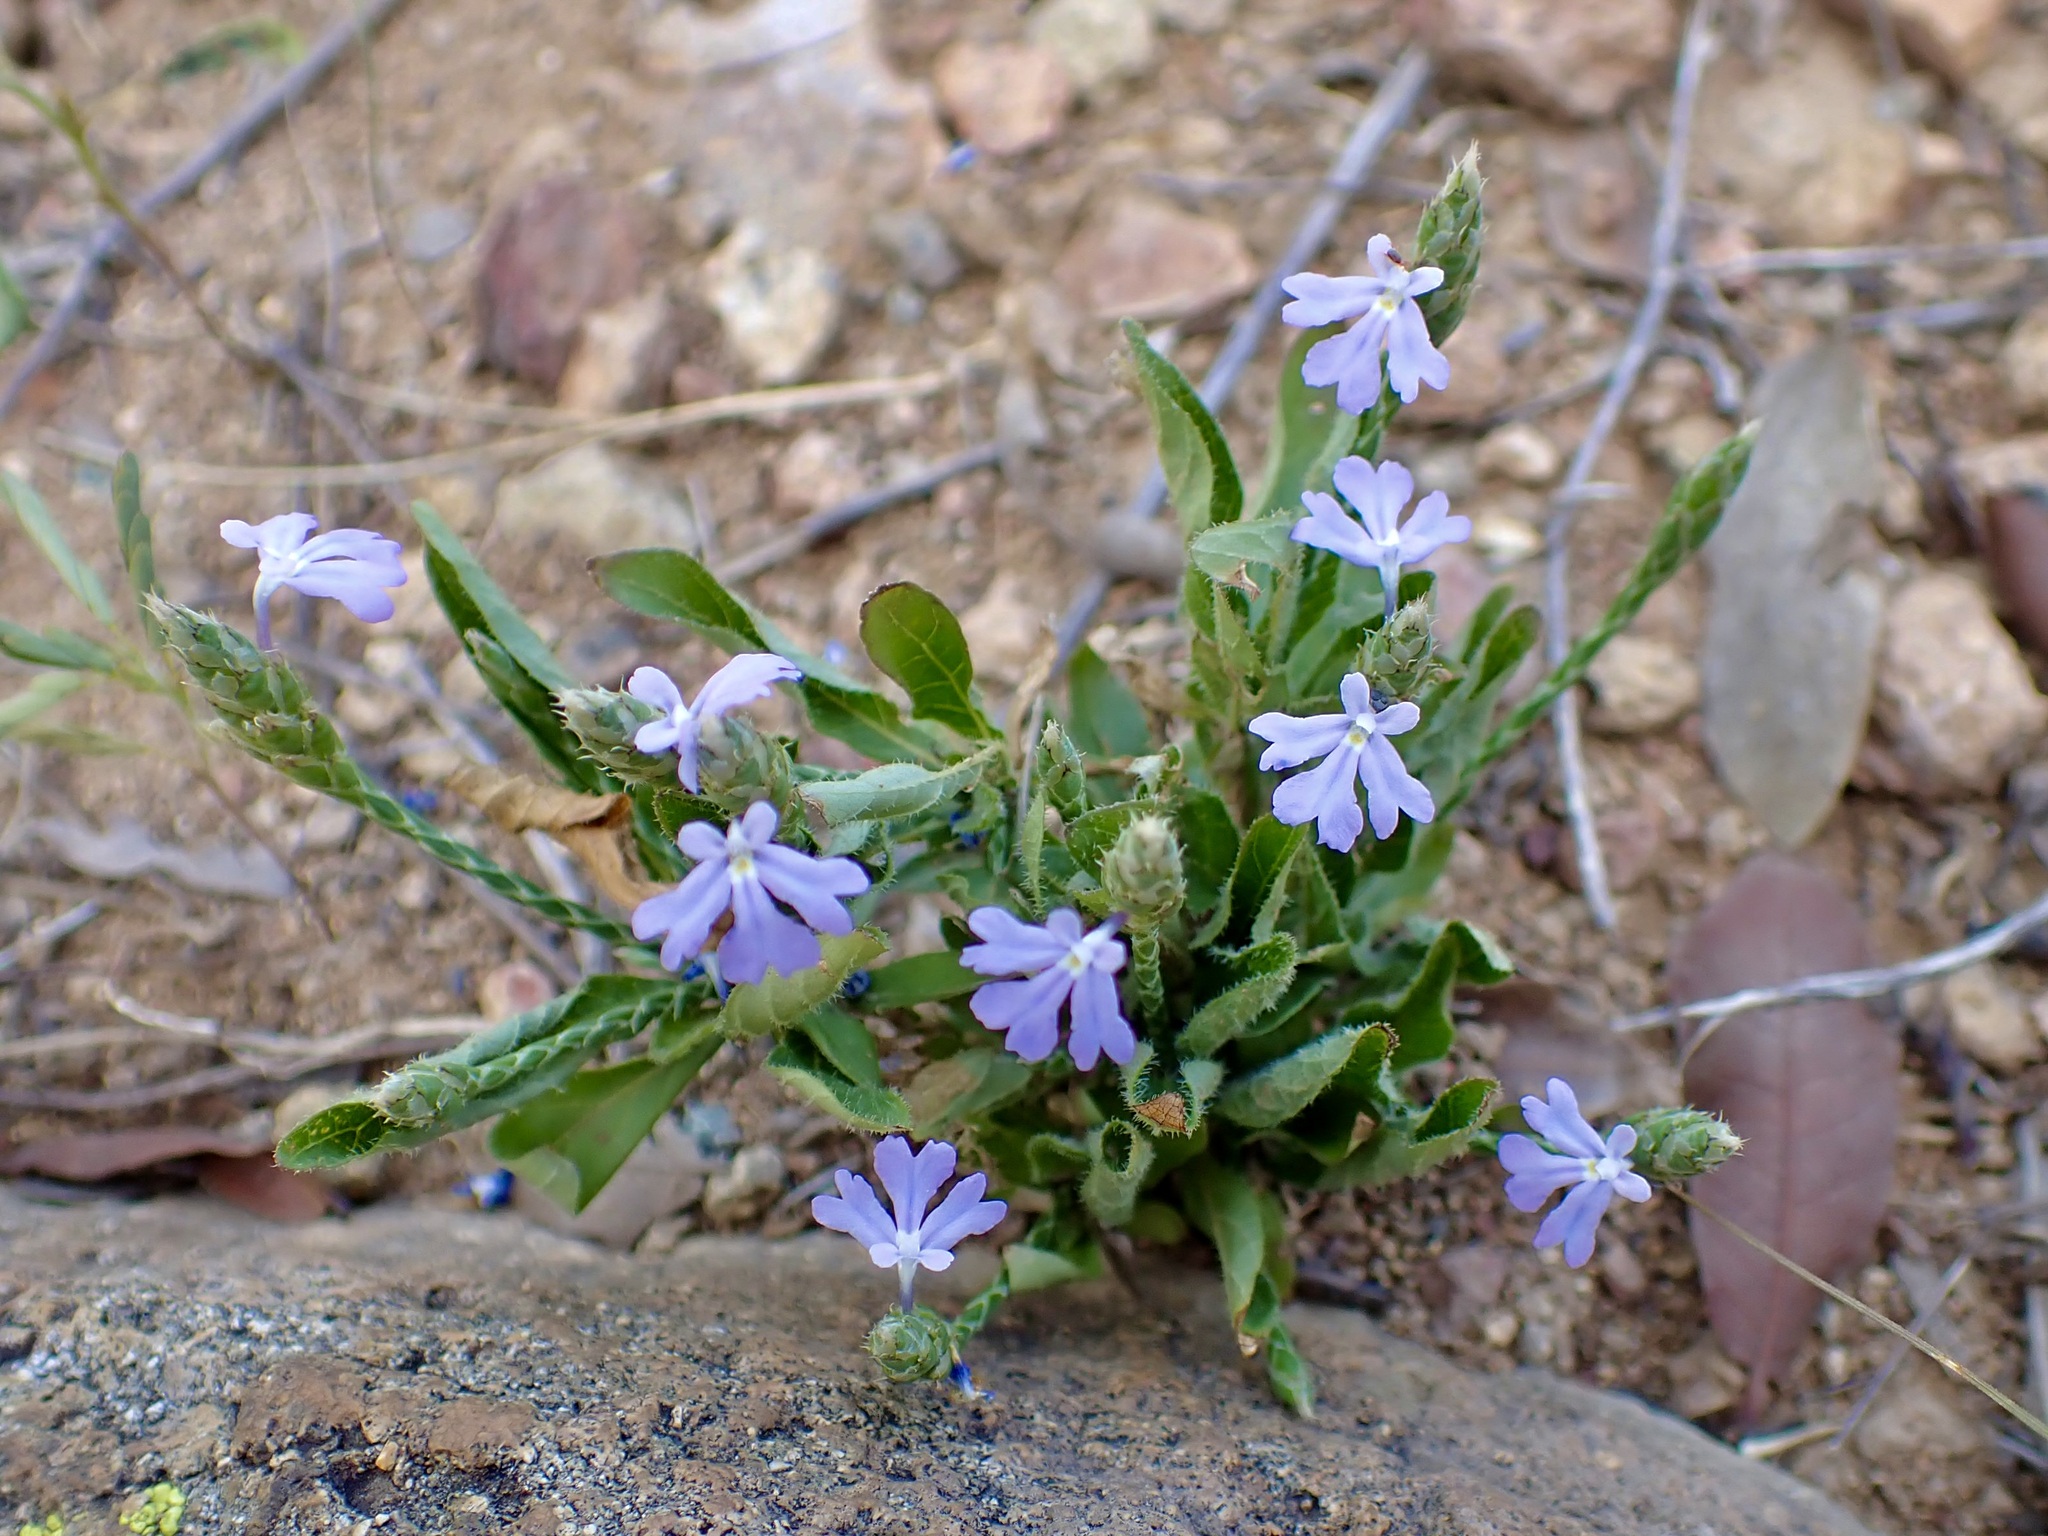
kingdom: Plantae
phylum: Tracheophyta
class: Magnoliopsida
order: Lamiales
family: Acanthaceae
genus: Elytraria
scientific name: Elytraria imbricata
